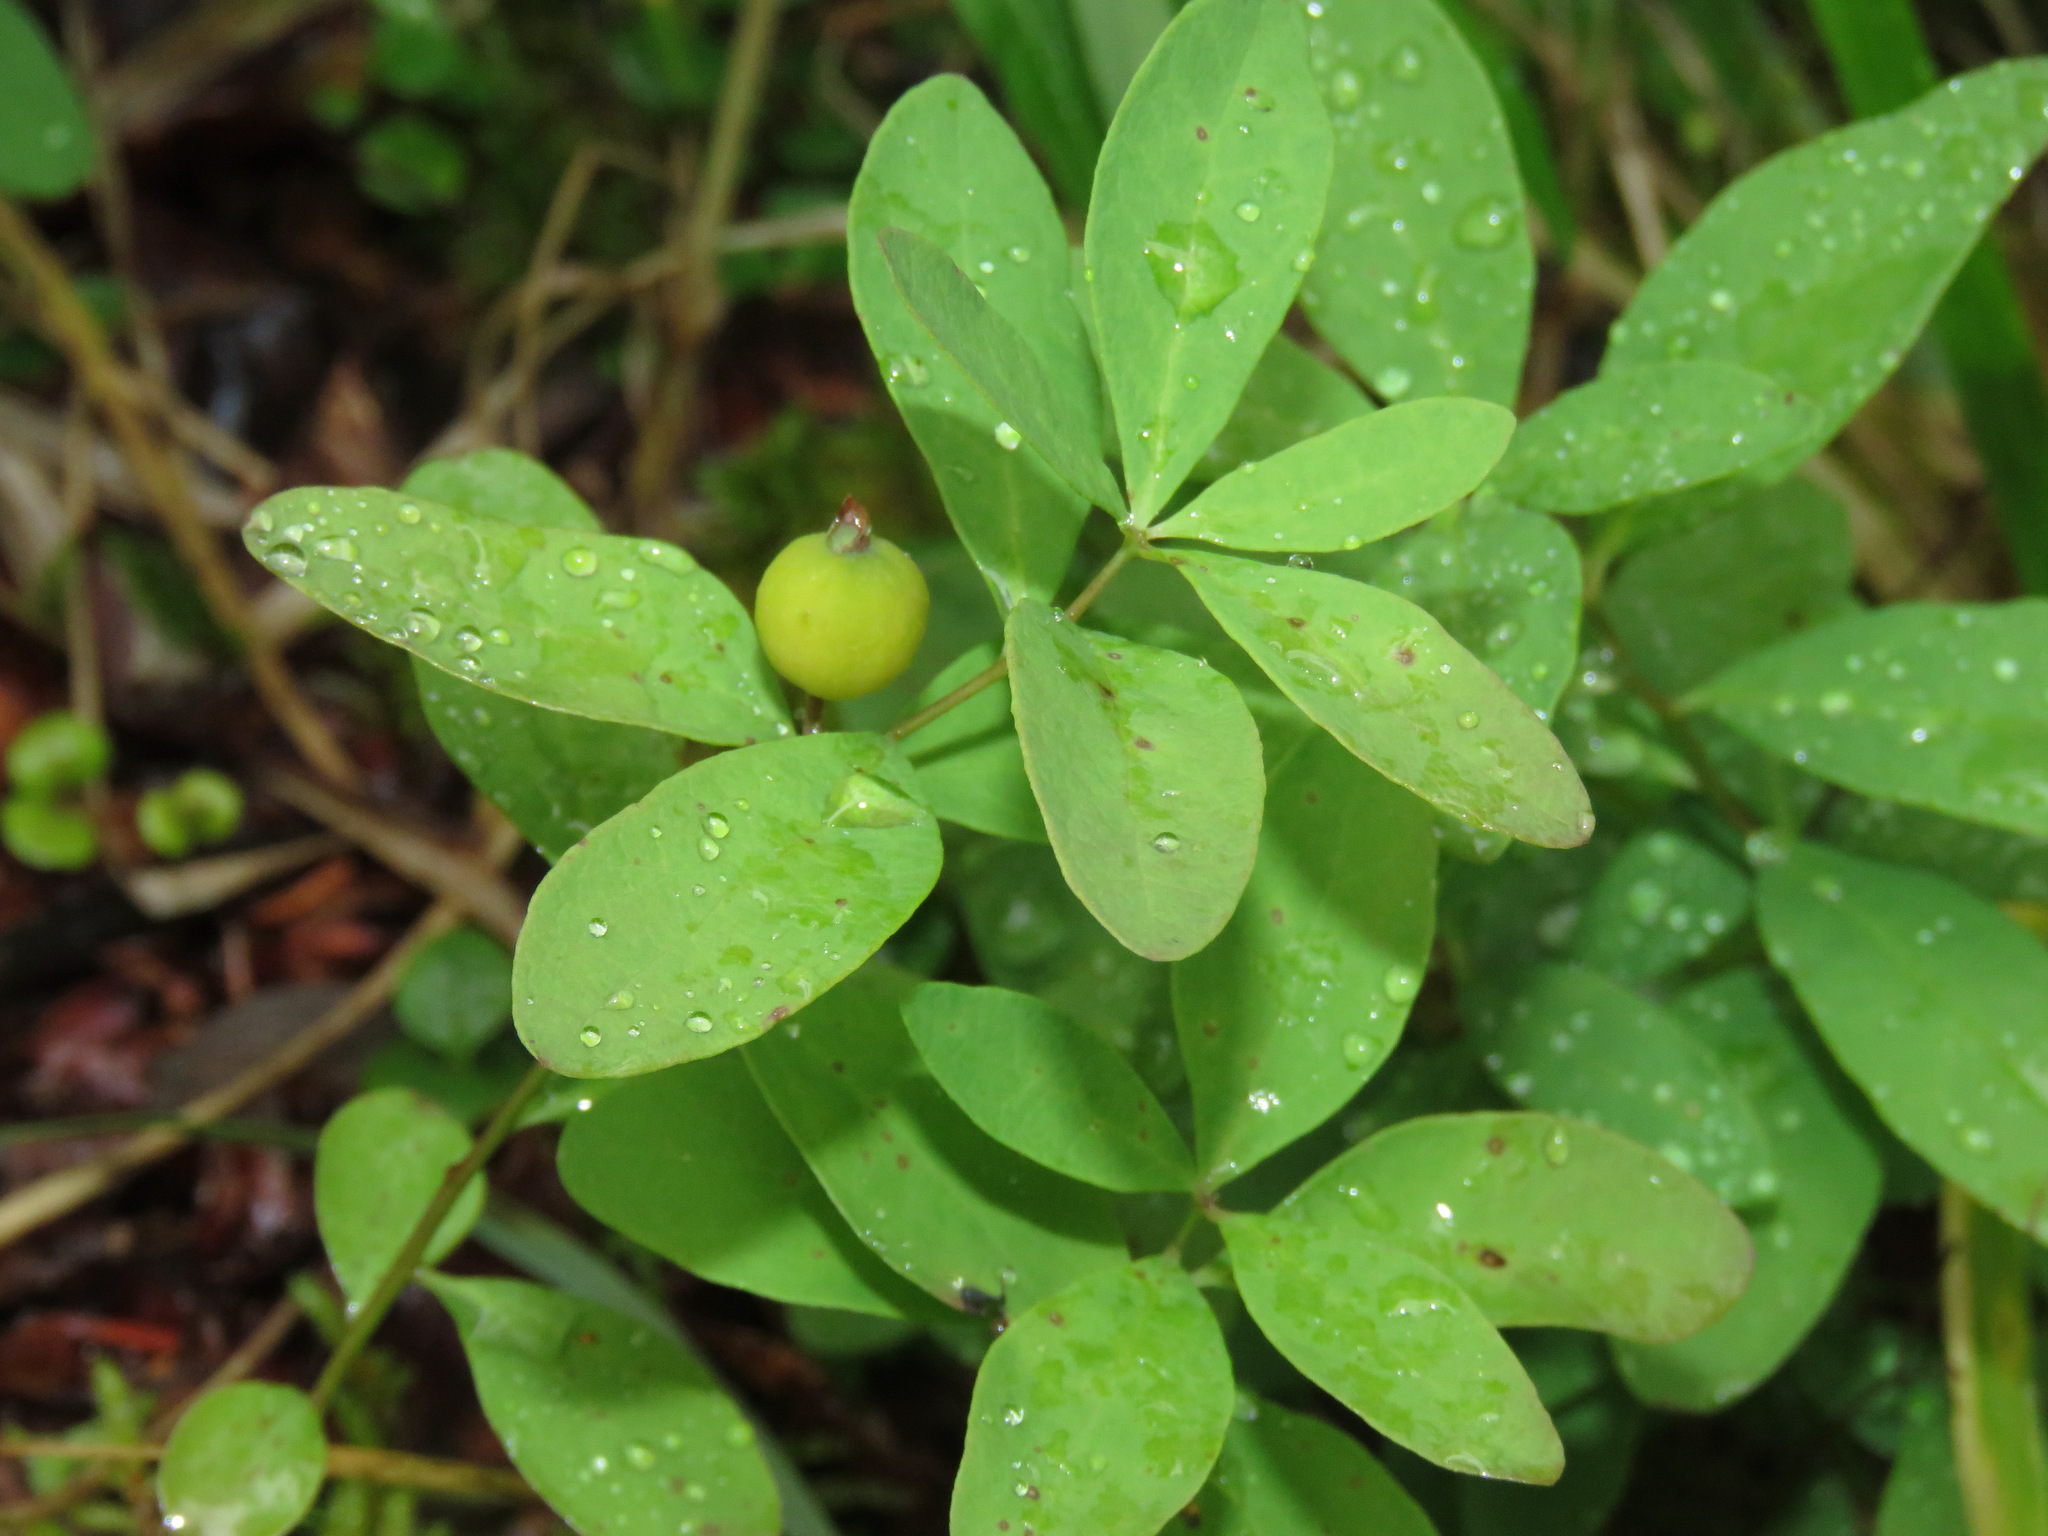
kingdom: Plantae
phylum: Tracheophyta
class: Magnoliopsida
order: Santalales
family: Comandraceae
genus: Geocaulon
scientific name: Geocaulon lividum
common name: Earthberry
